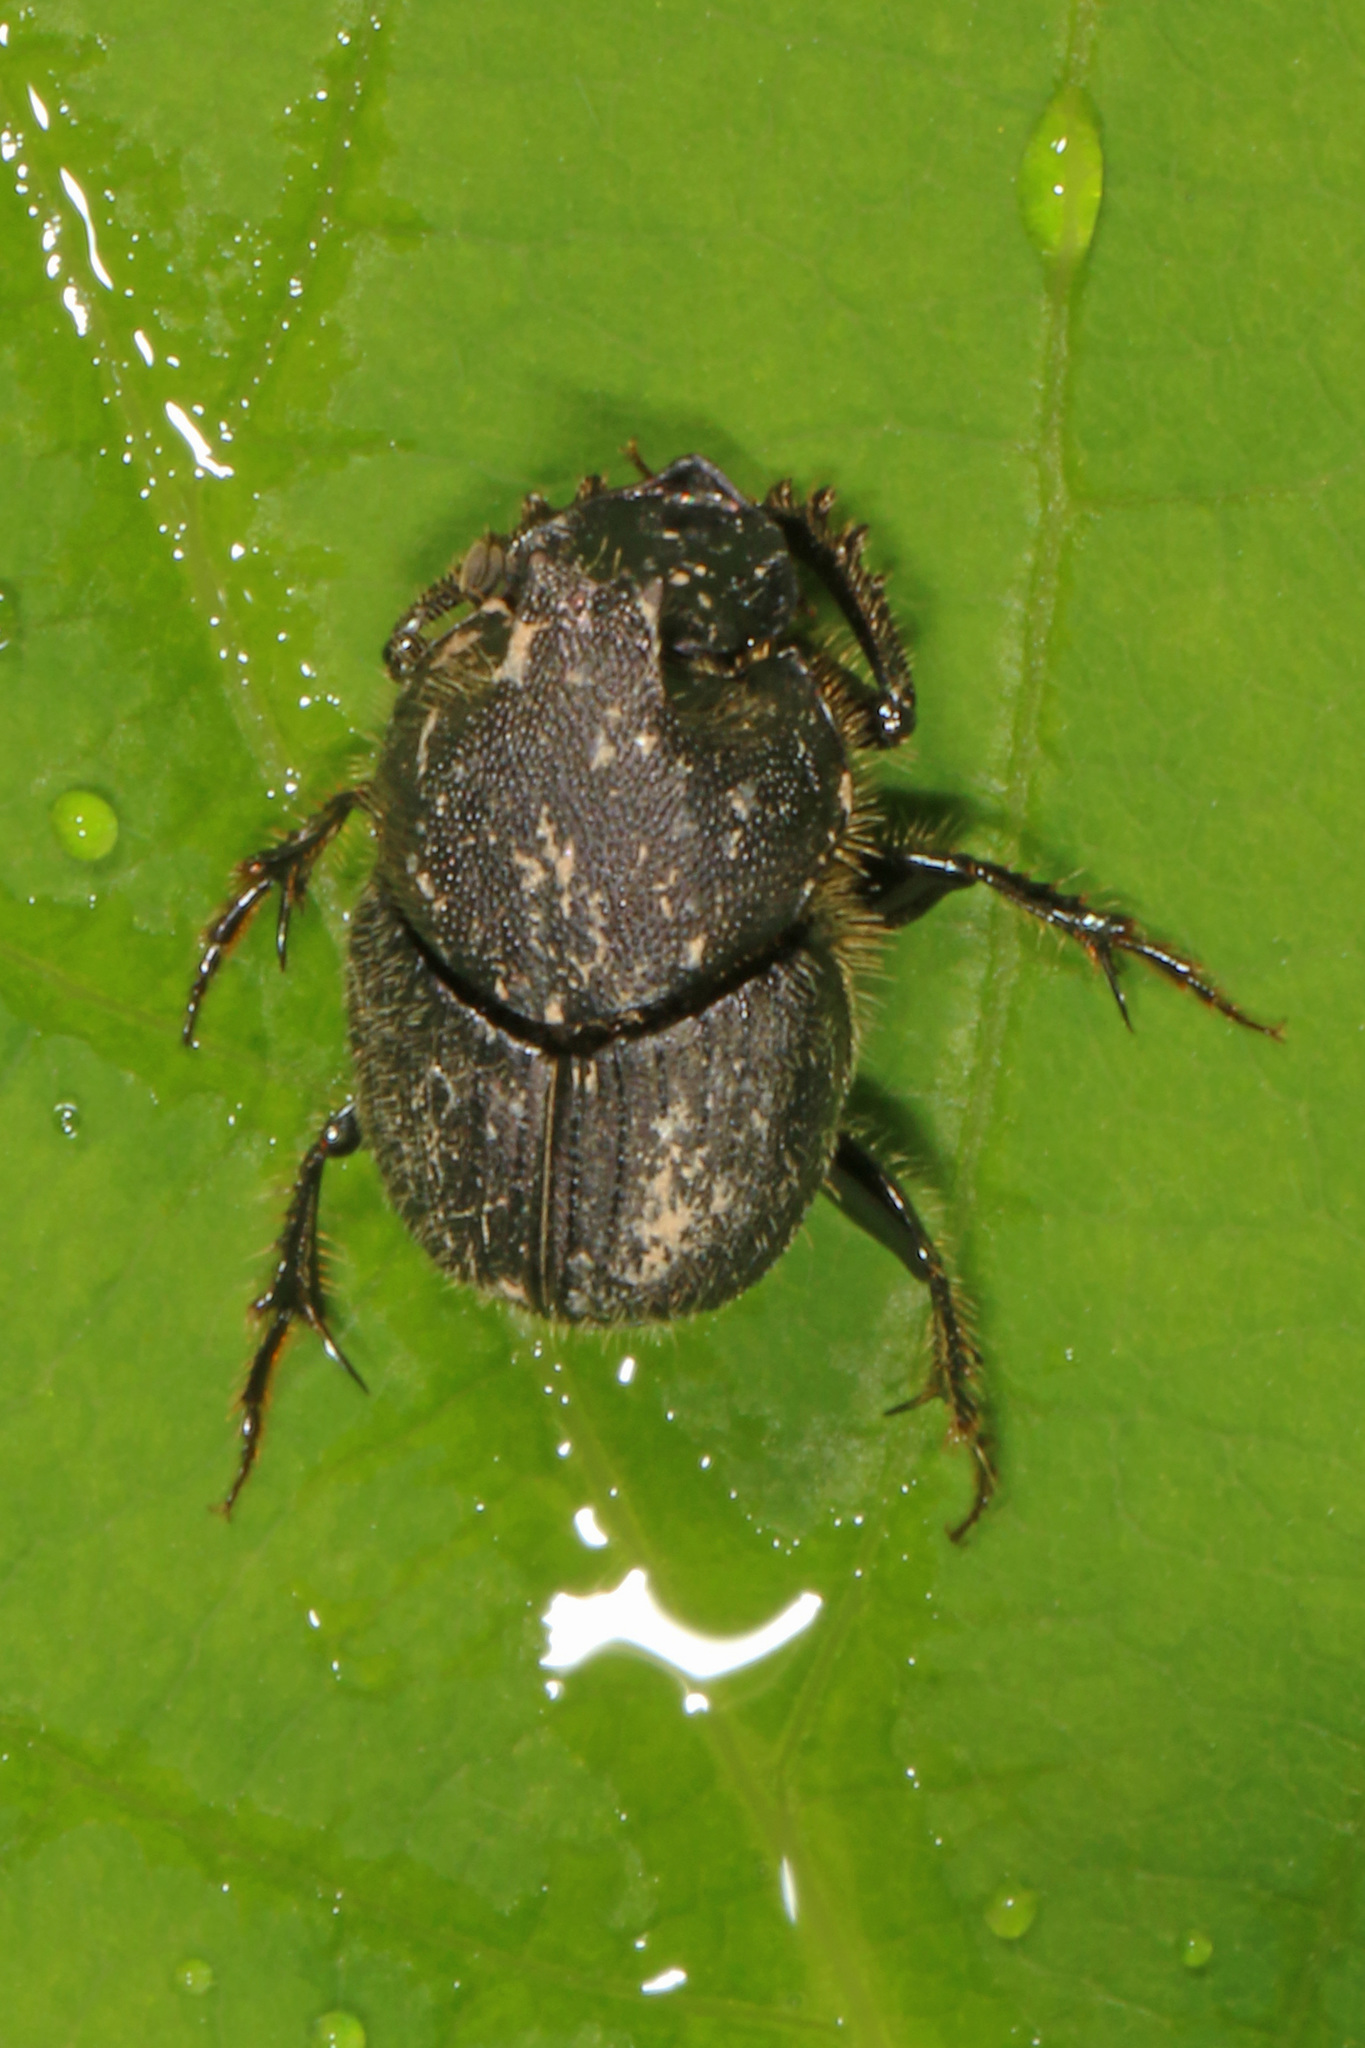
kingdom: Animalia
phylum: Arthropoda
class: Insecta
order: Coleoptera
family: Scarabaeidae
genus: Onthophagus
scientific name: Onthophagus hecate
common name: Scooped scarab
